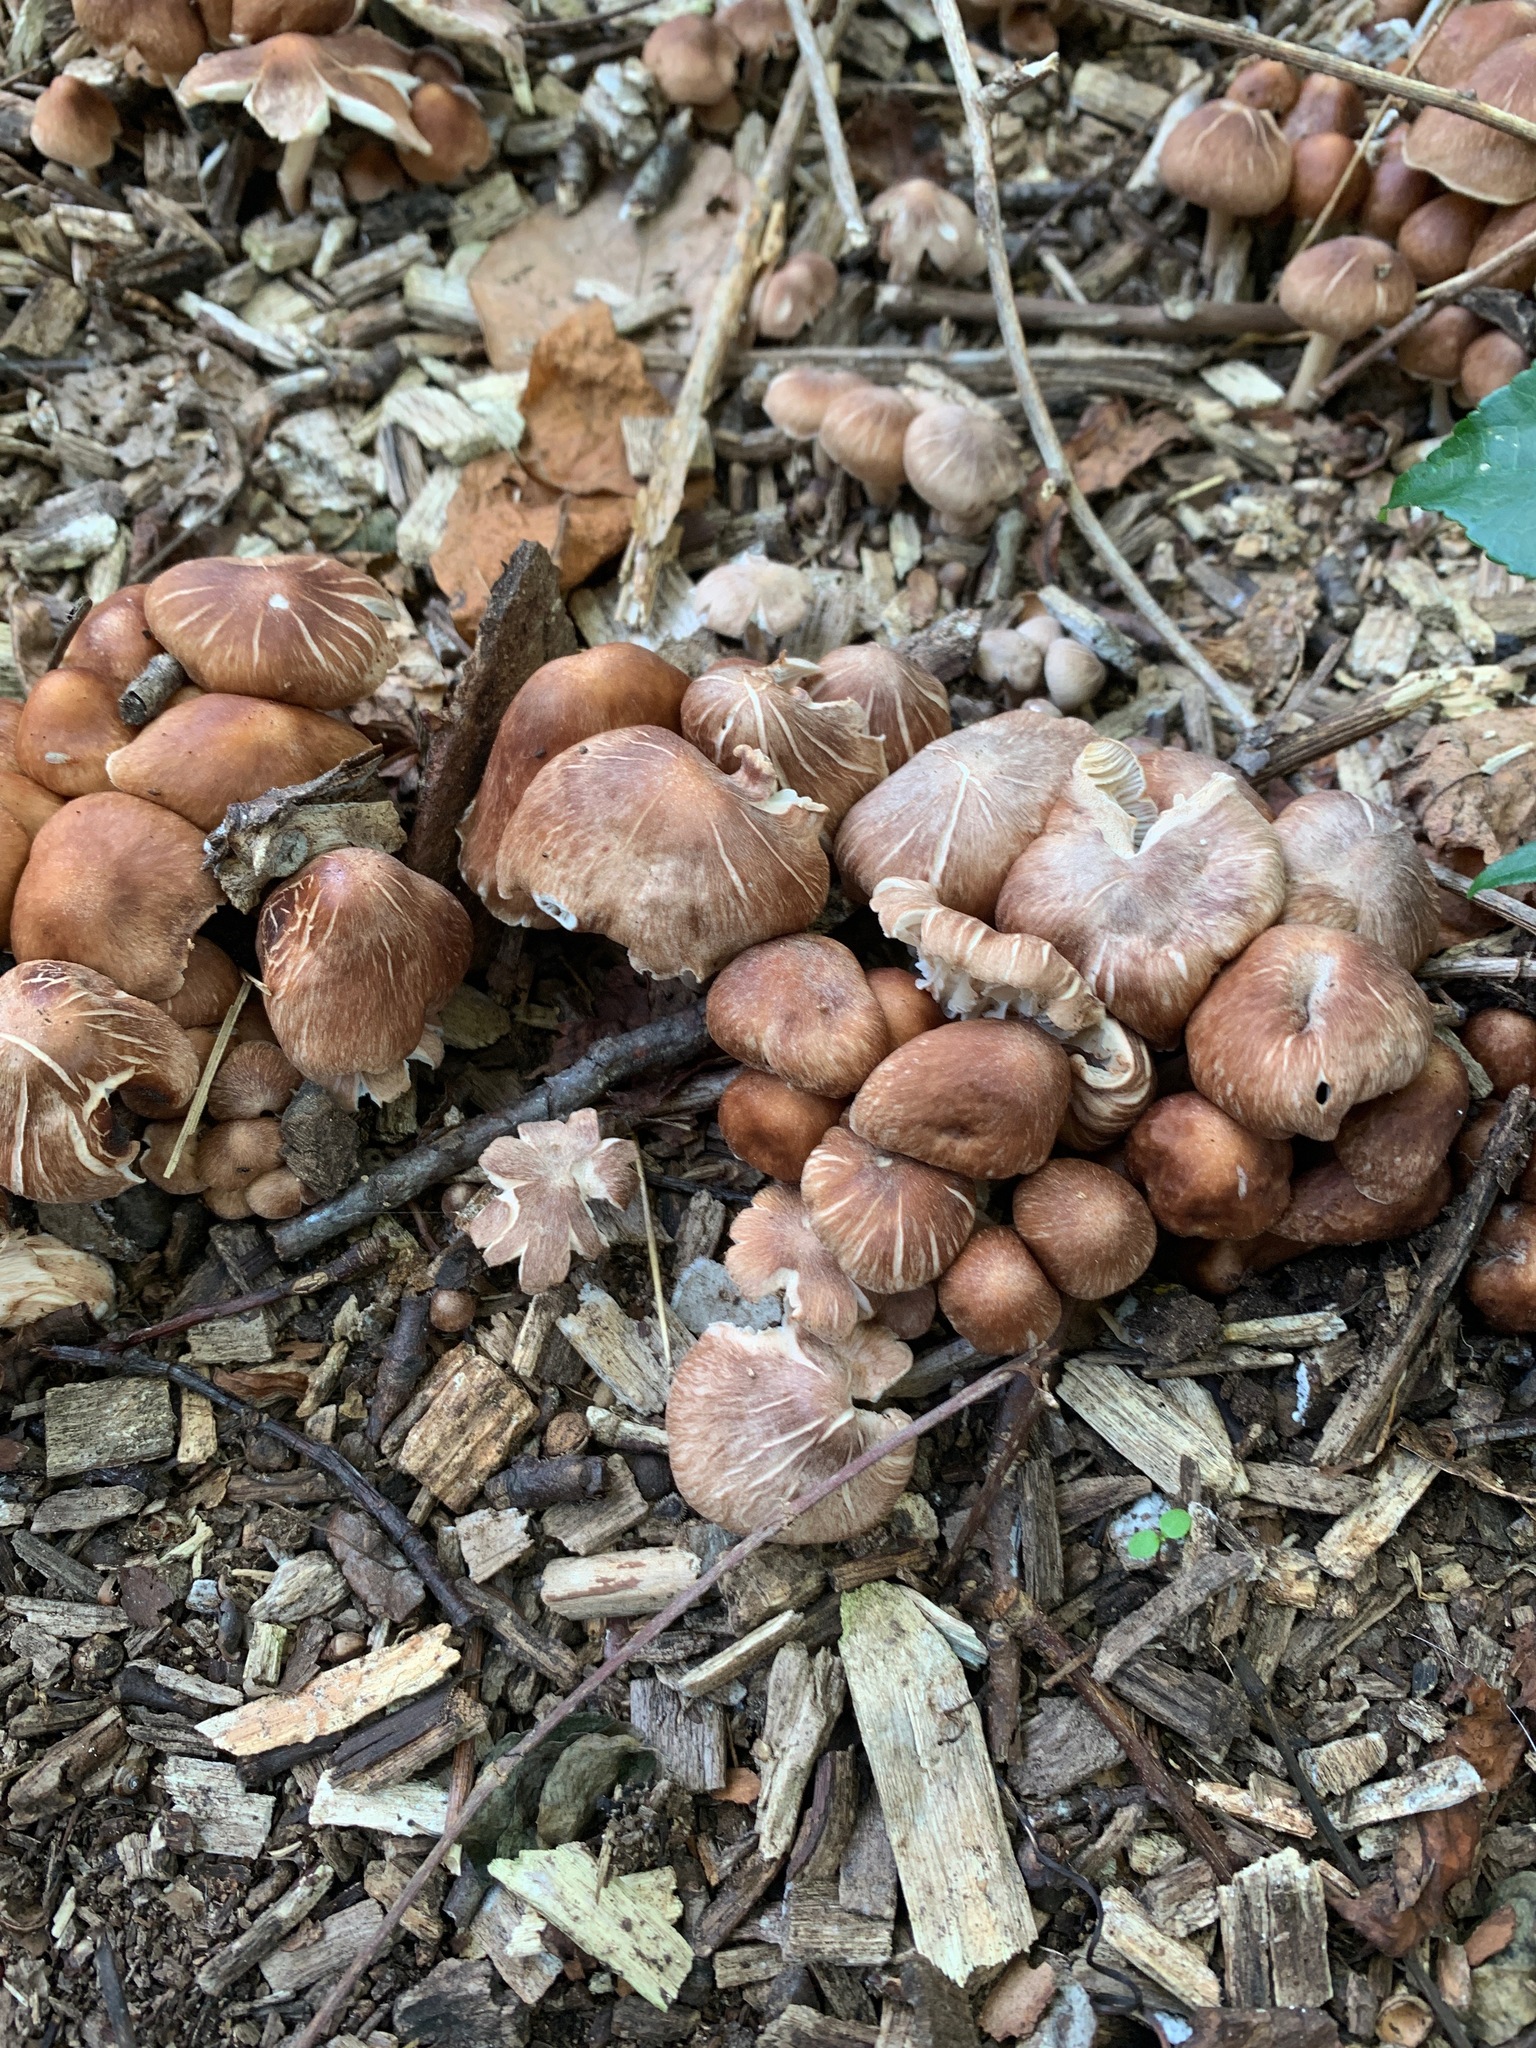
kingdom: Fungi
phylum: Basidiomycota
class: Agaricomycetes
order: Agaricales
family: Omphalotaceae
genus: Collybiopsis
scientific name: Collybiopsis luxurians
